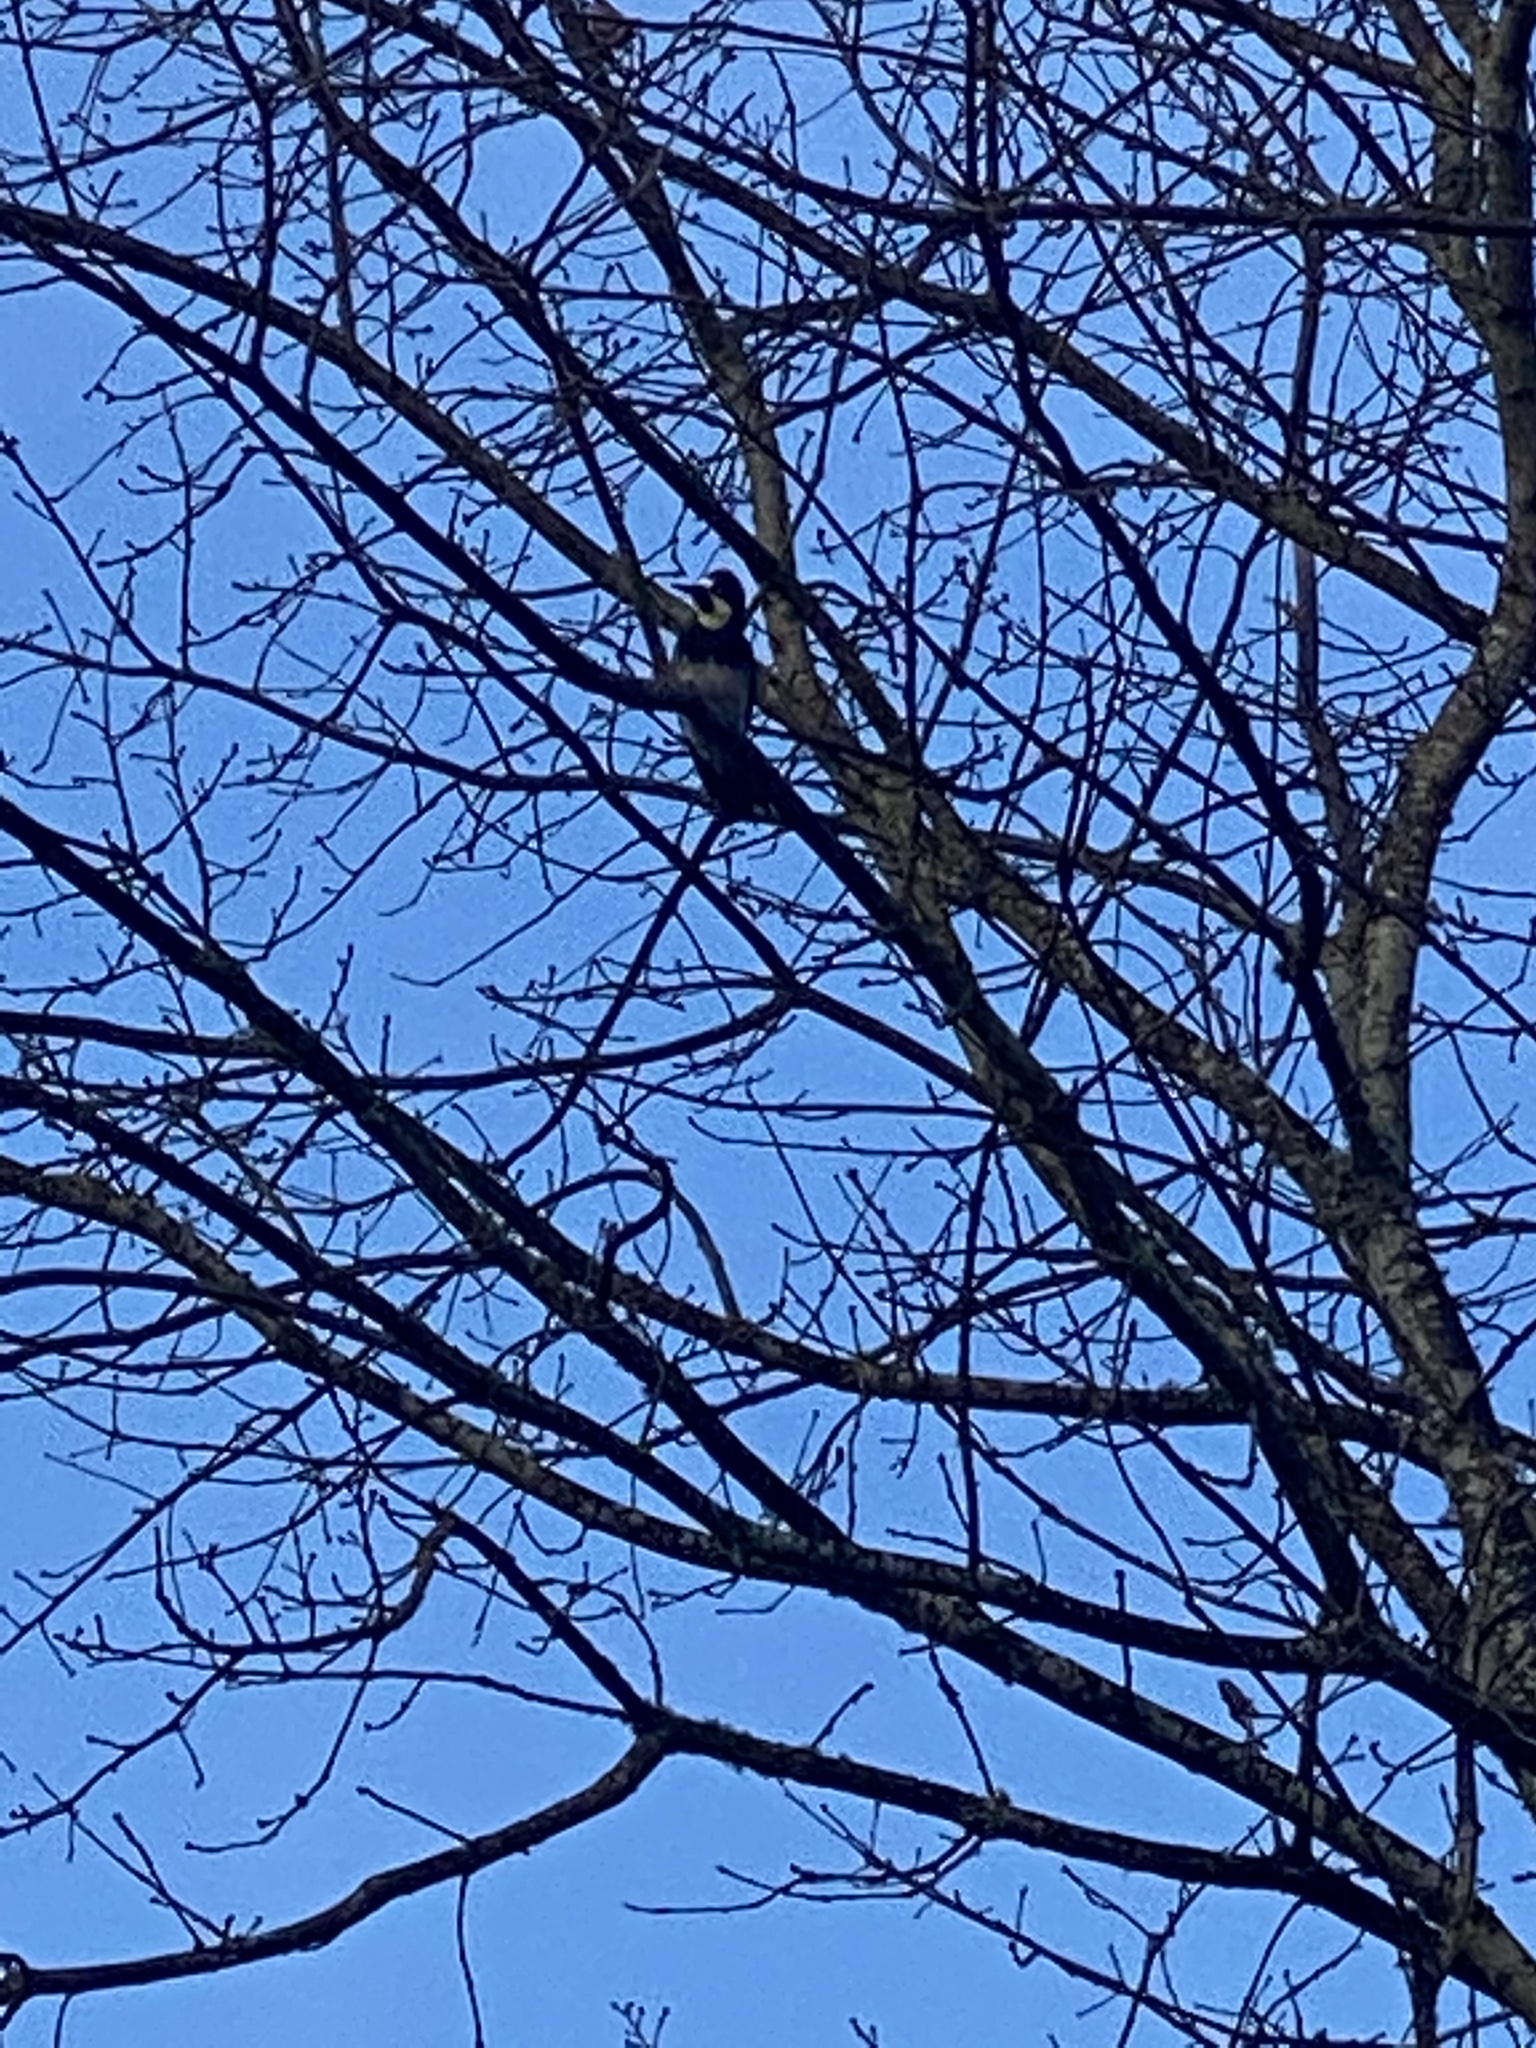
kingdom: Animalia
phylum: Chordata
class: Aves
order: Piciformes
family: Picidae
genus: Melanerpes
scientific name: Melanerpes formicivorus
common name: Acorn woodpecker
